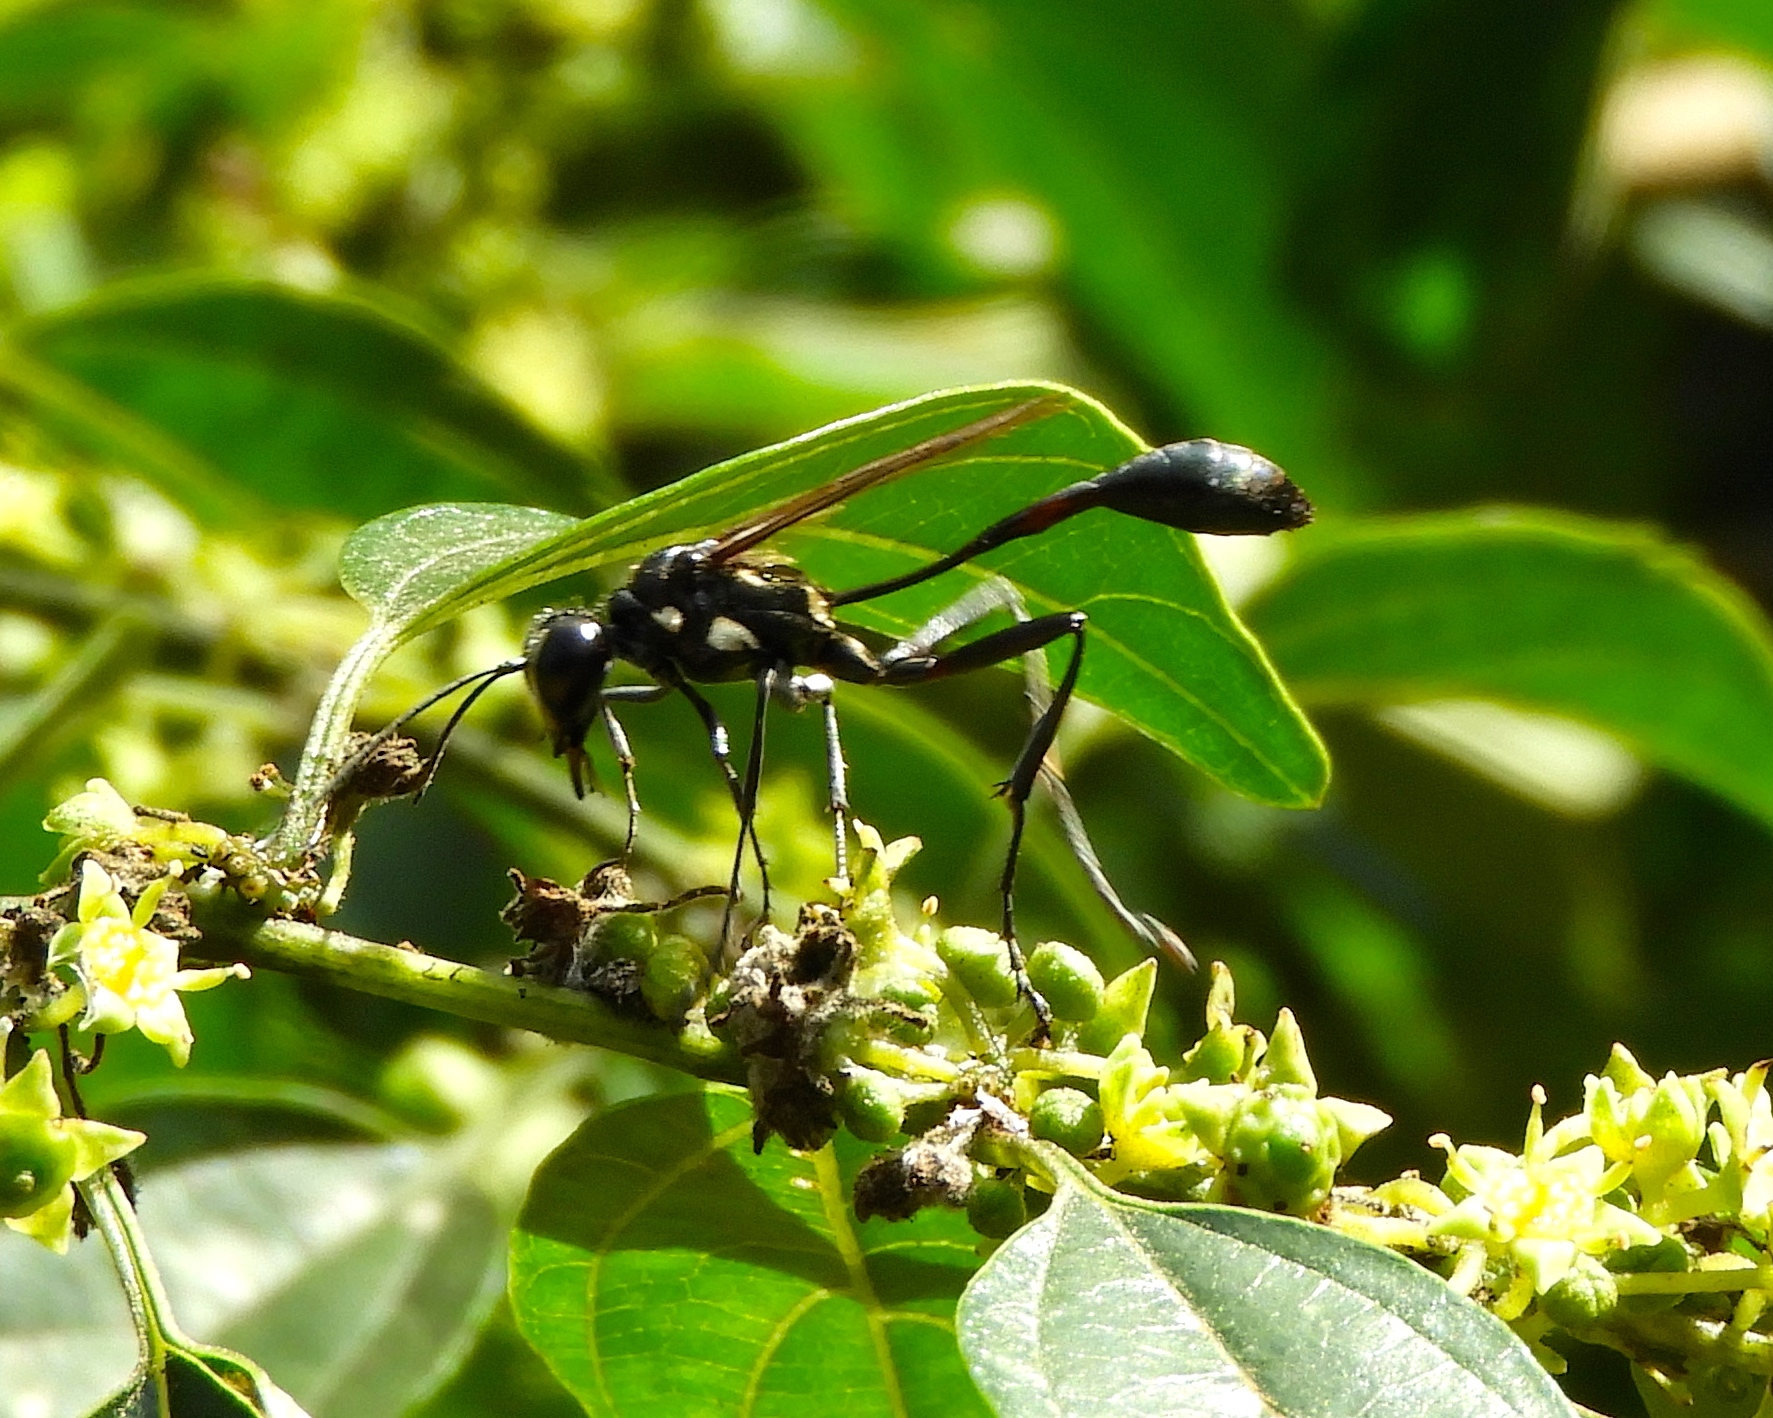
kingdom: Animalia
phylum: Arthropoda
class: Insecta
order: Hymenoptera
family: Sphecidae
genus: Eremnophila
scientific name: Eremnophila
